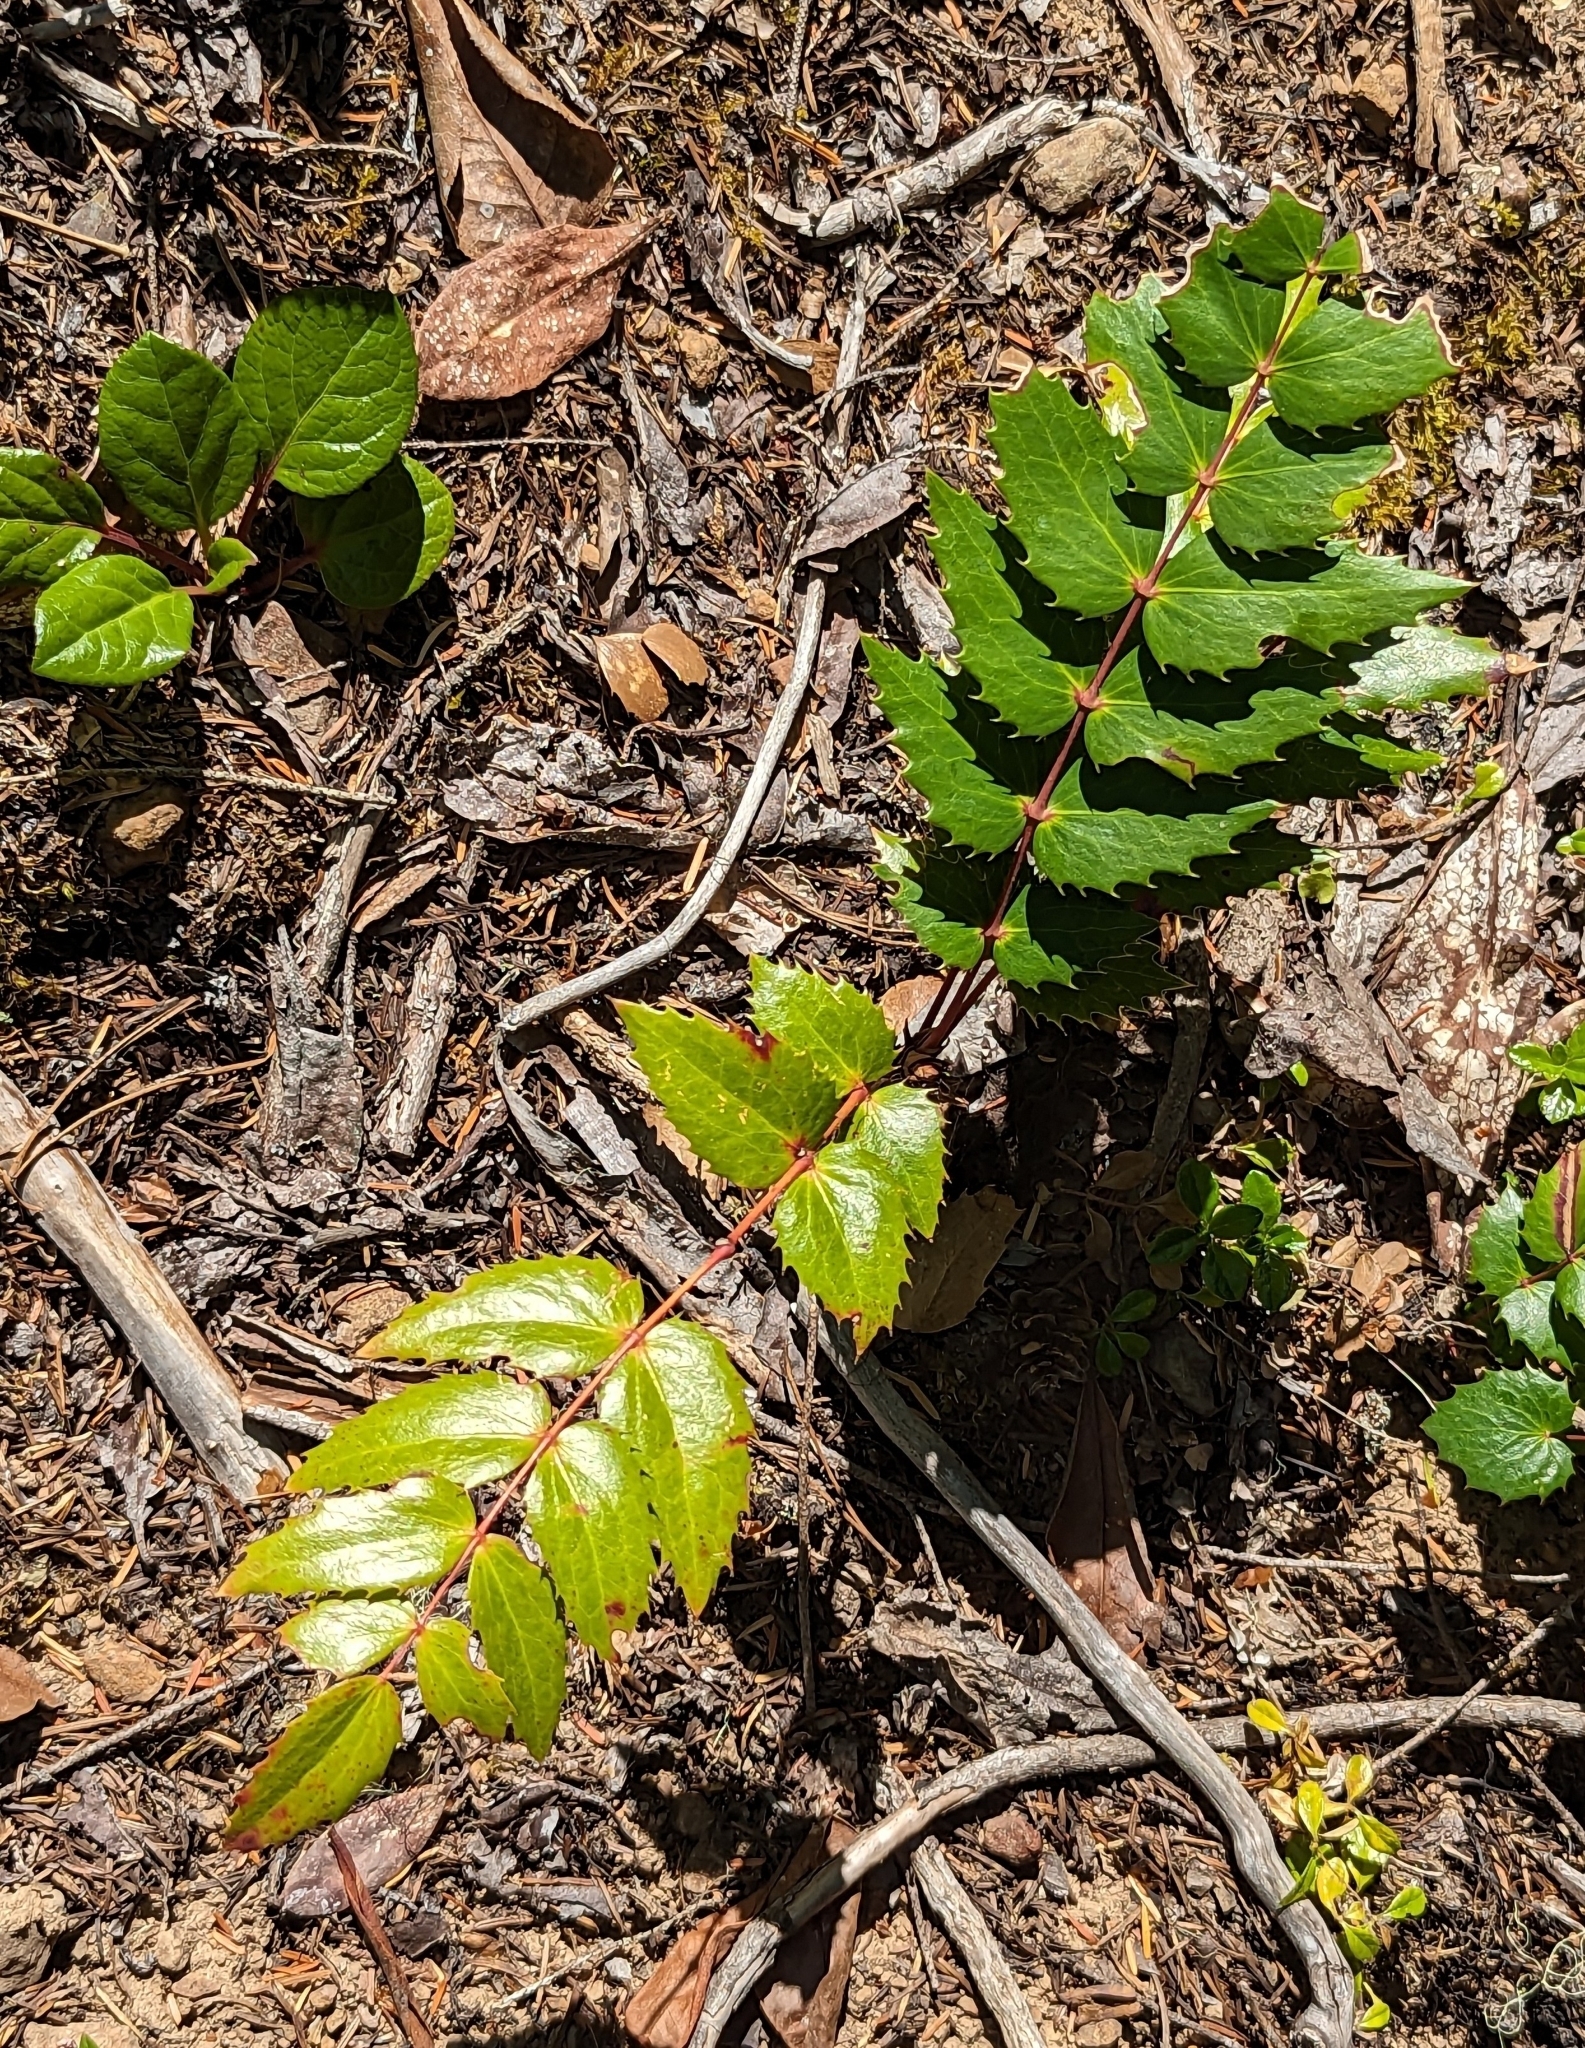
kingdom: Plantae
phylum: Tracheophyta
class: Magnoliopsida
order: Ranunculales
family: Berberidaceae
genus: Mahonia
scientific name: Mahonia nervosa
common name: Cascade oregon-grape
